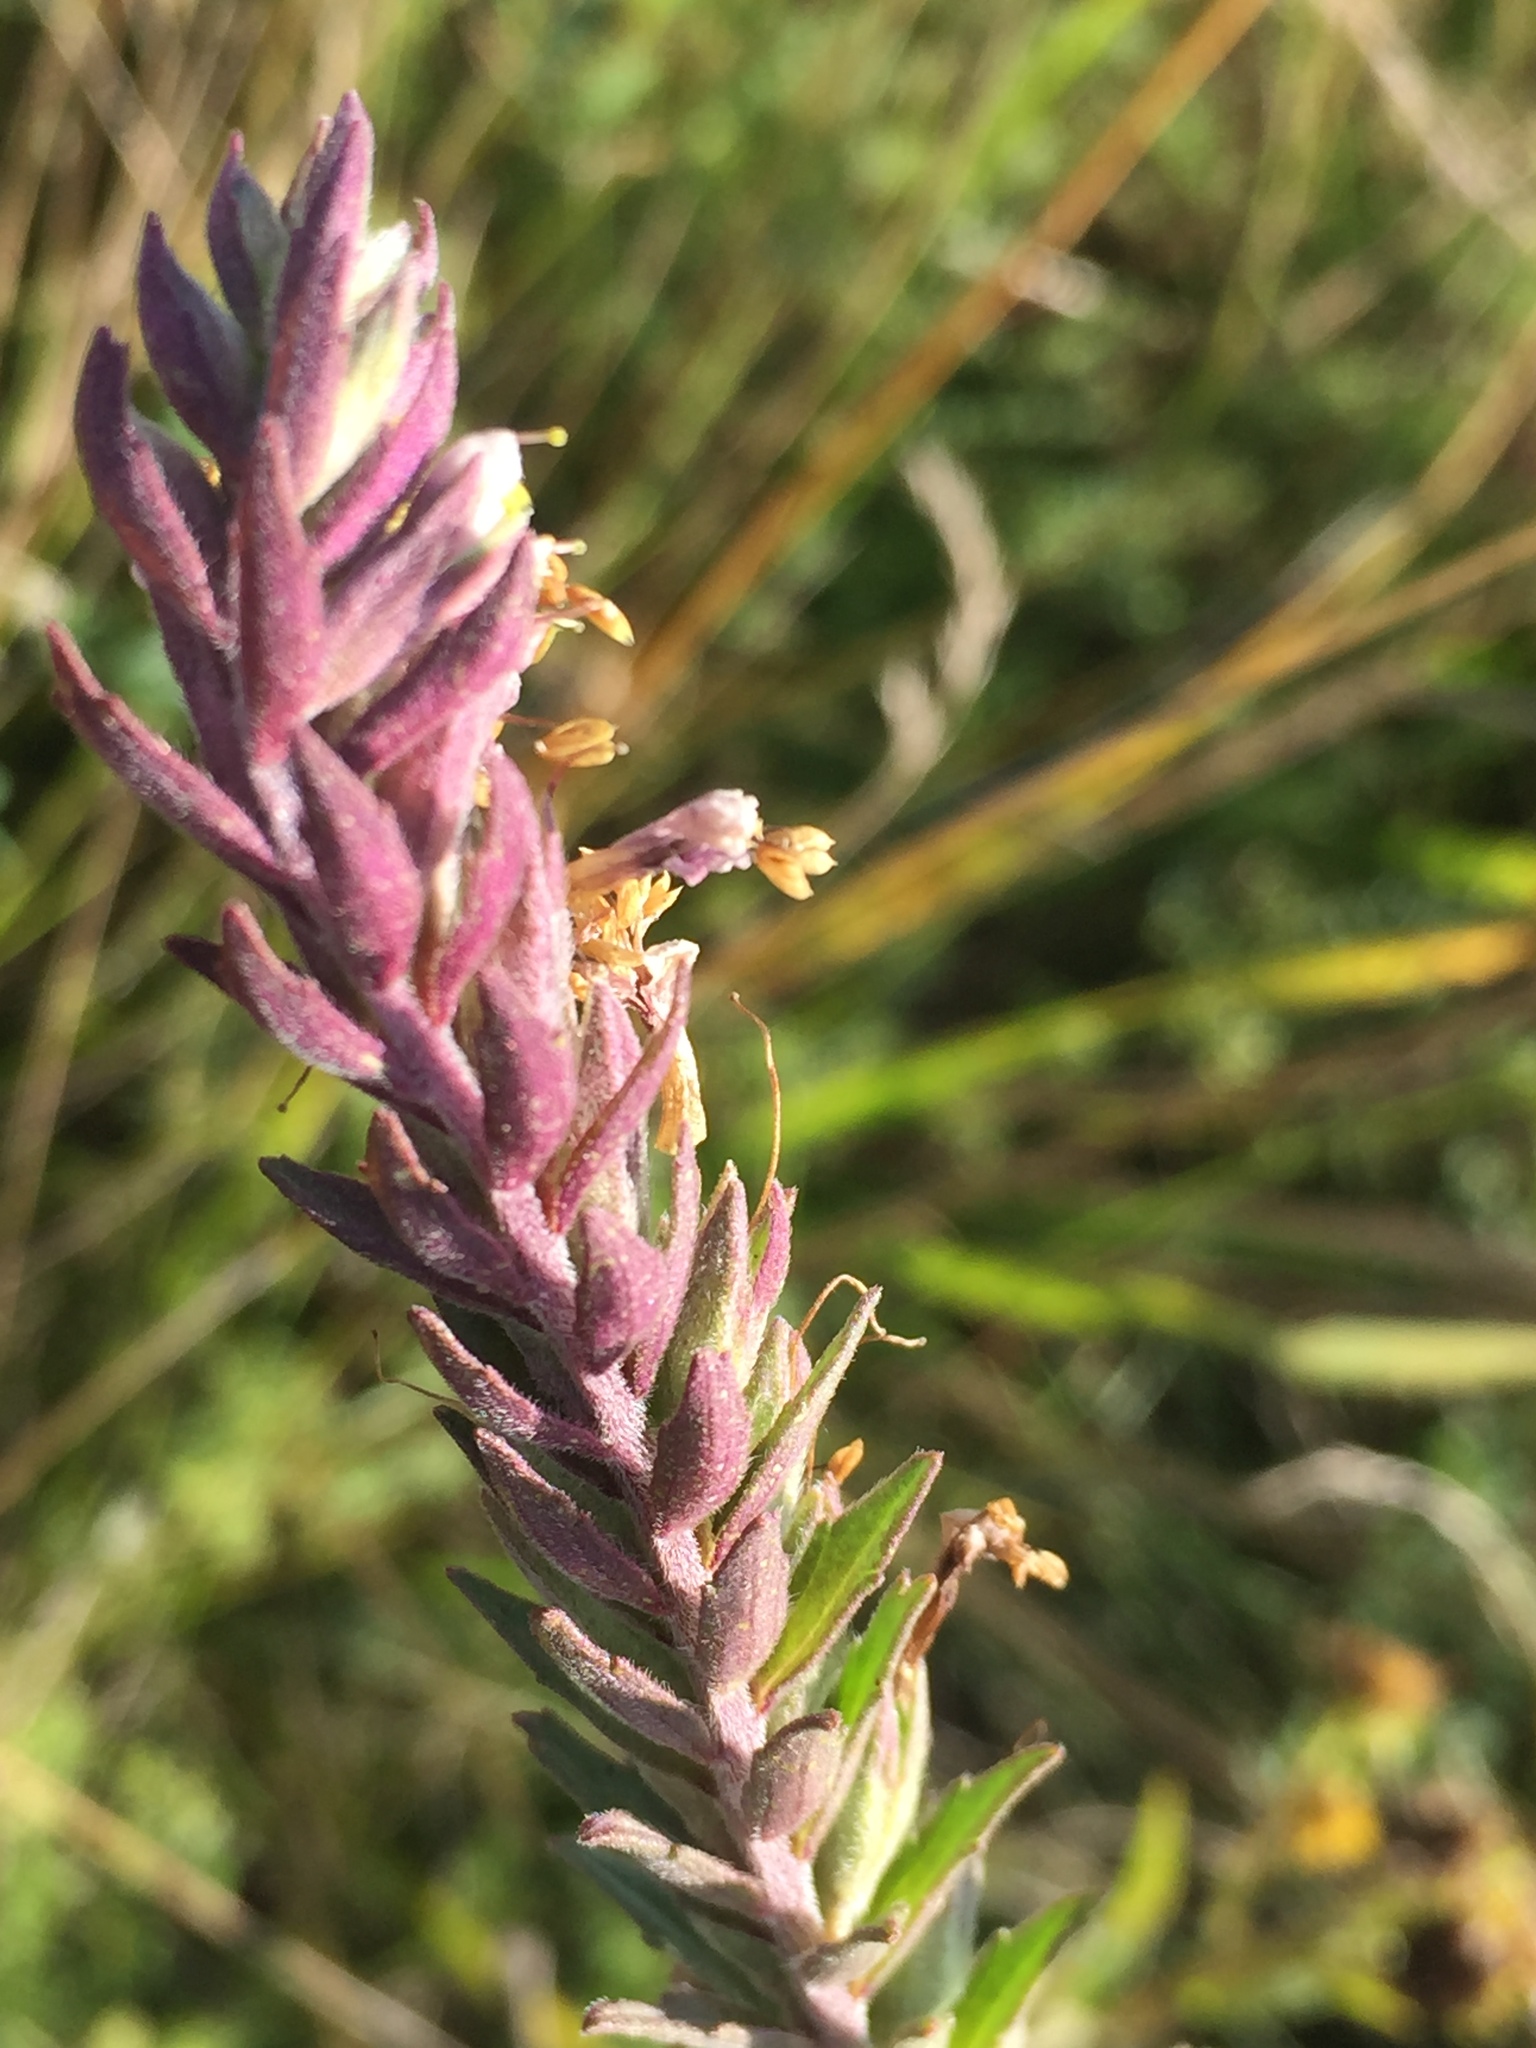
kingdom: Plantae
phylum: Tracheophyta
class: Magnoliopsida
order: Lamiales
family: Orobanchaceae
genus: Odontites
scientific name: Odontites vulgaris
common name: Broomrape
